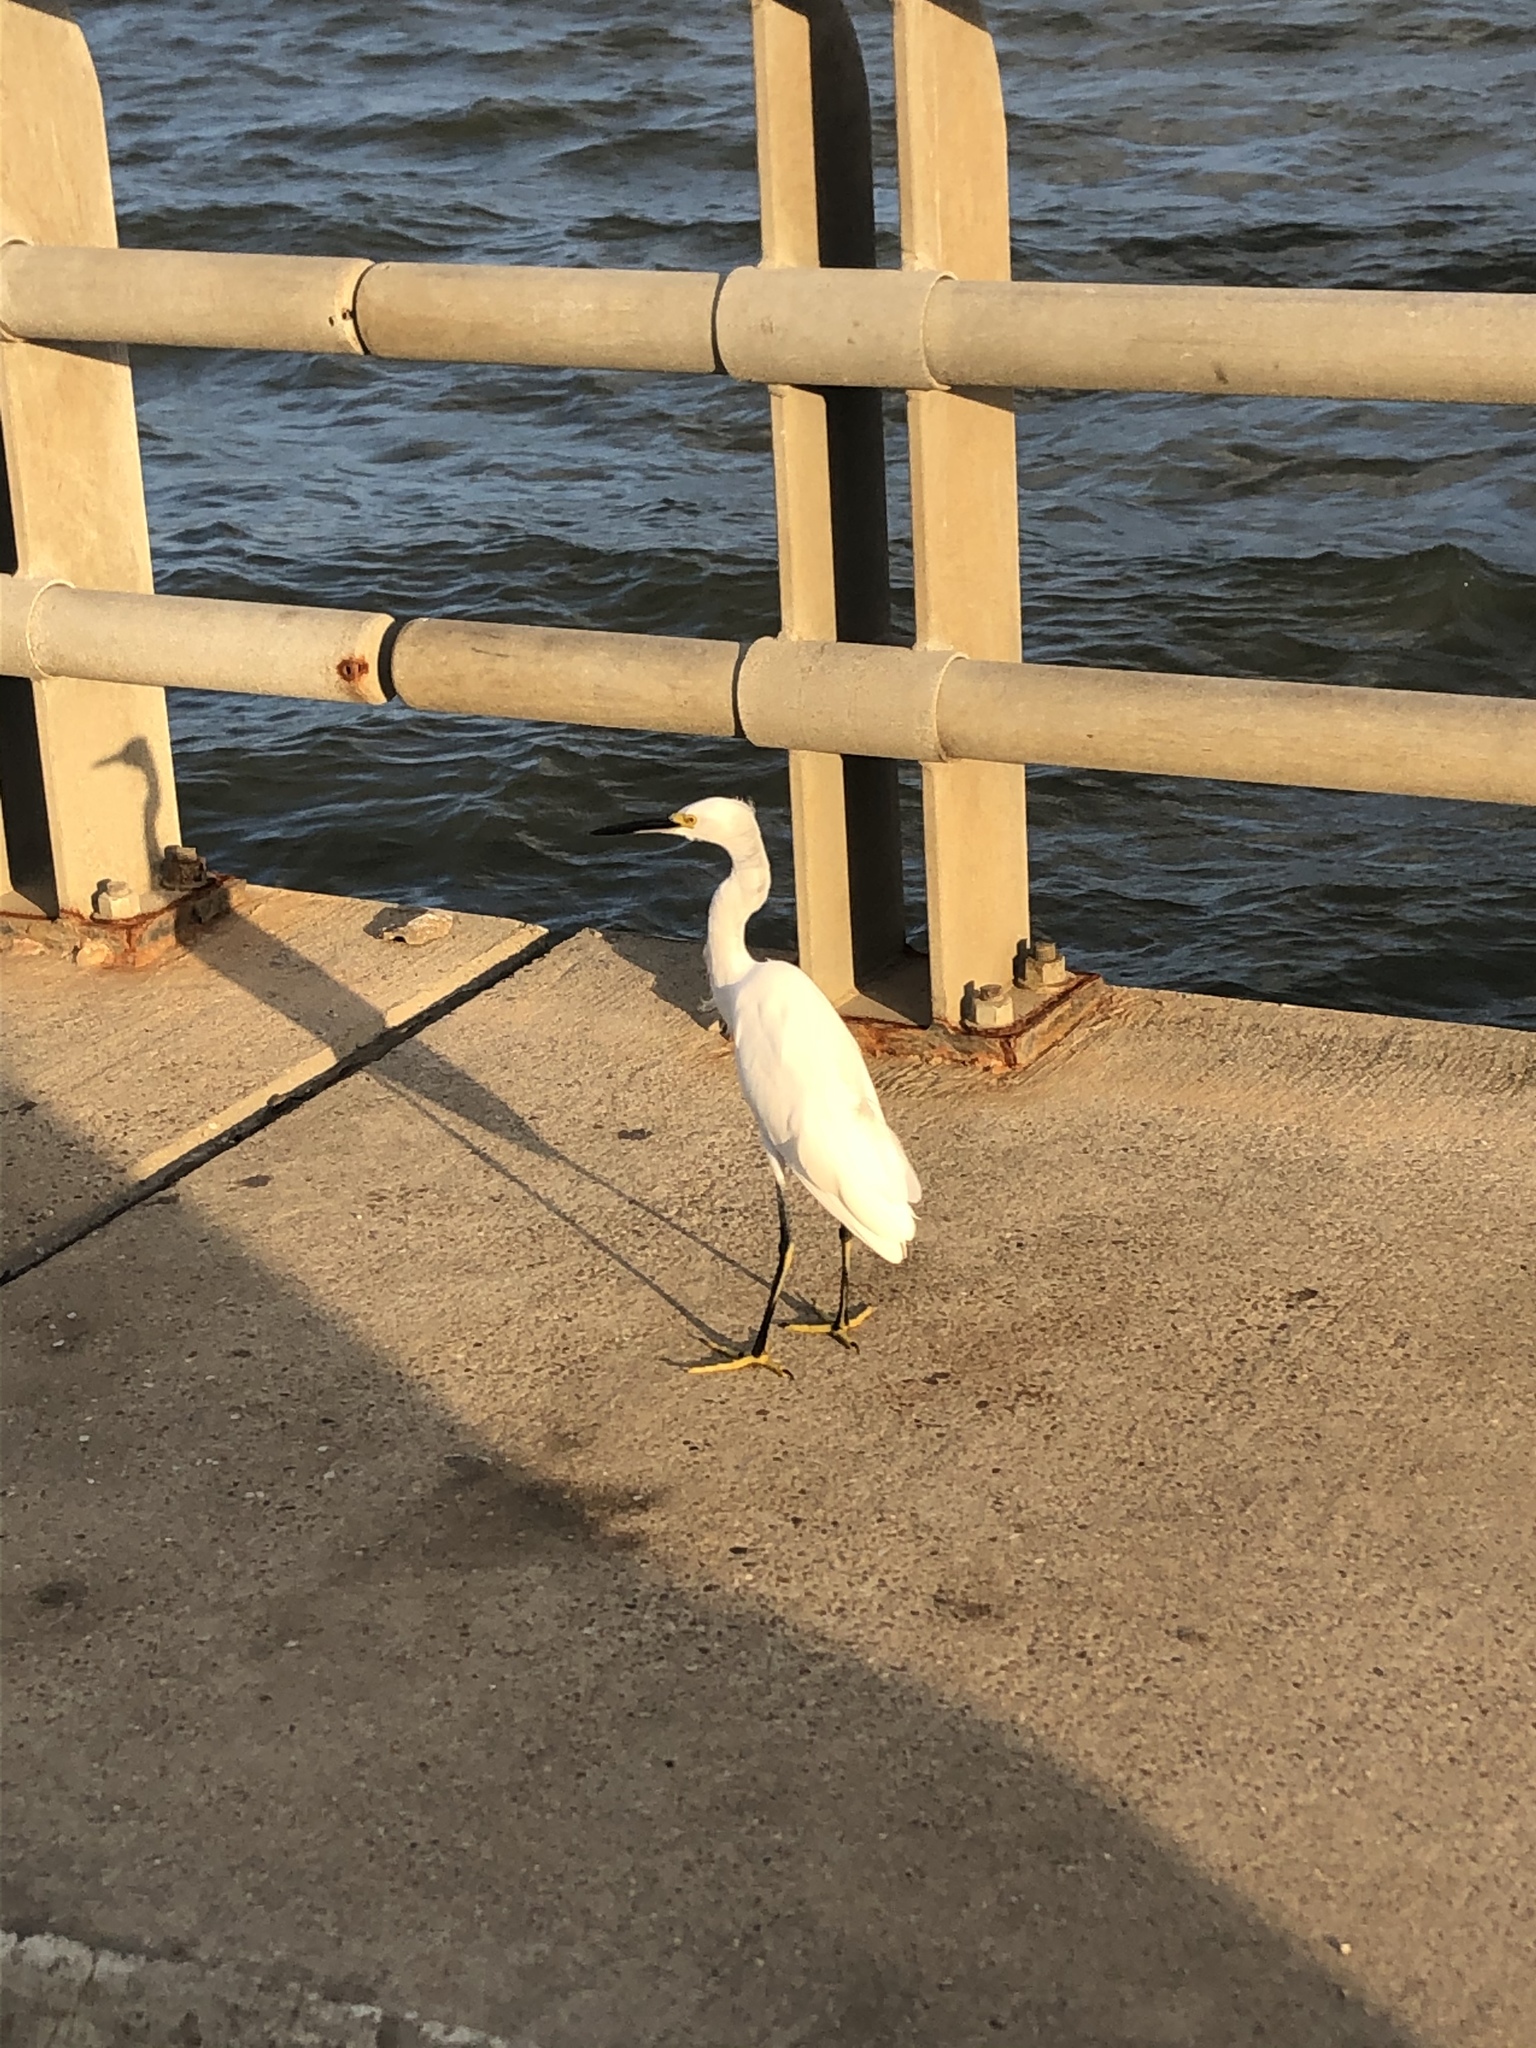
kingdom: Animalia
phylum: Chordata
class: Aves
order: Pelecaniformes
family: Ardeidae
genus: Egretta
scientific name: Egretta thula
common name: Snowy egret
